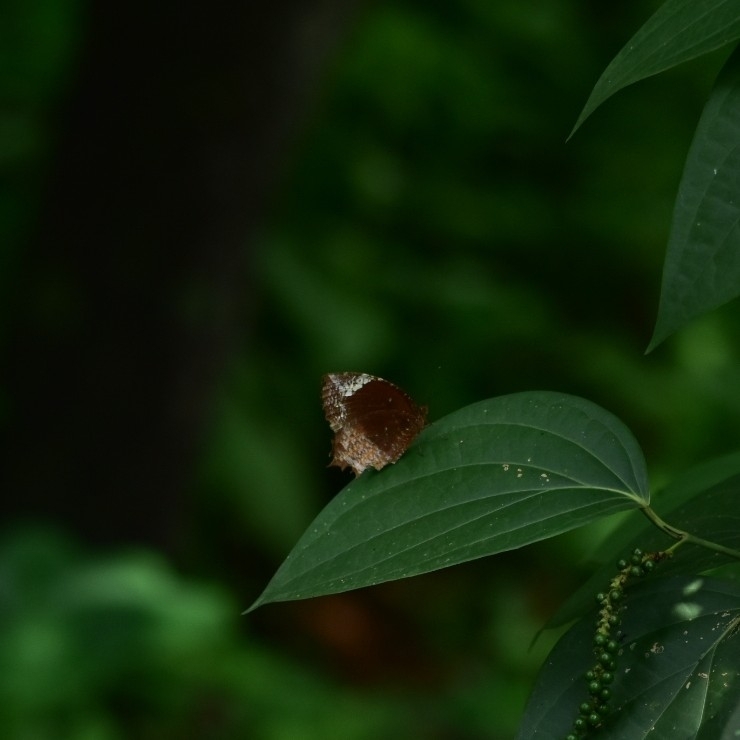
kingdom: Animalia
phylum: Arthropoda
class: Insecta
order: Lepidoptera
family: Nymphalidae
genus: Elymnias
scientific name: Elymnias caudata
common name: Tailed palmfly
